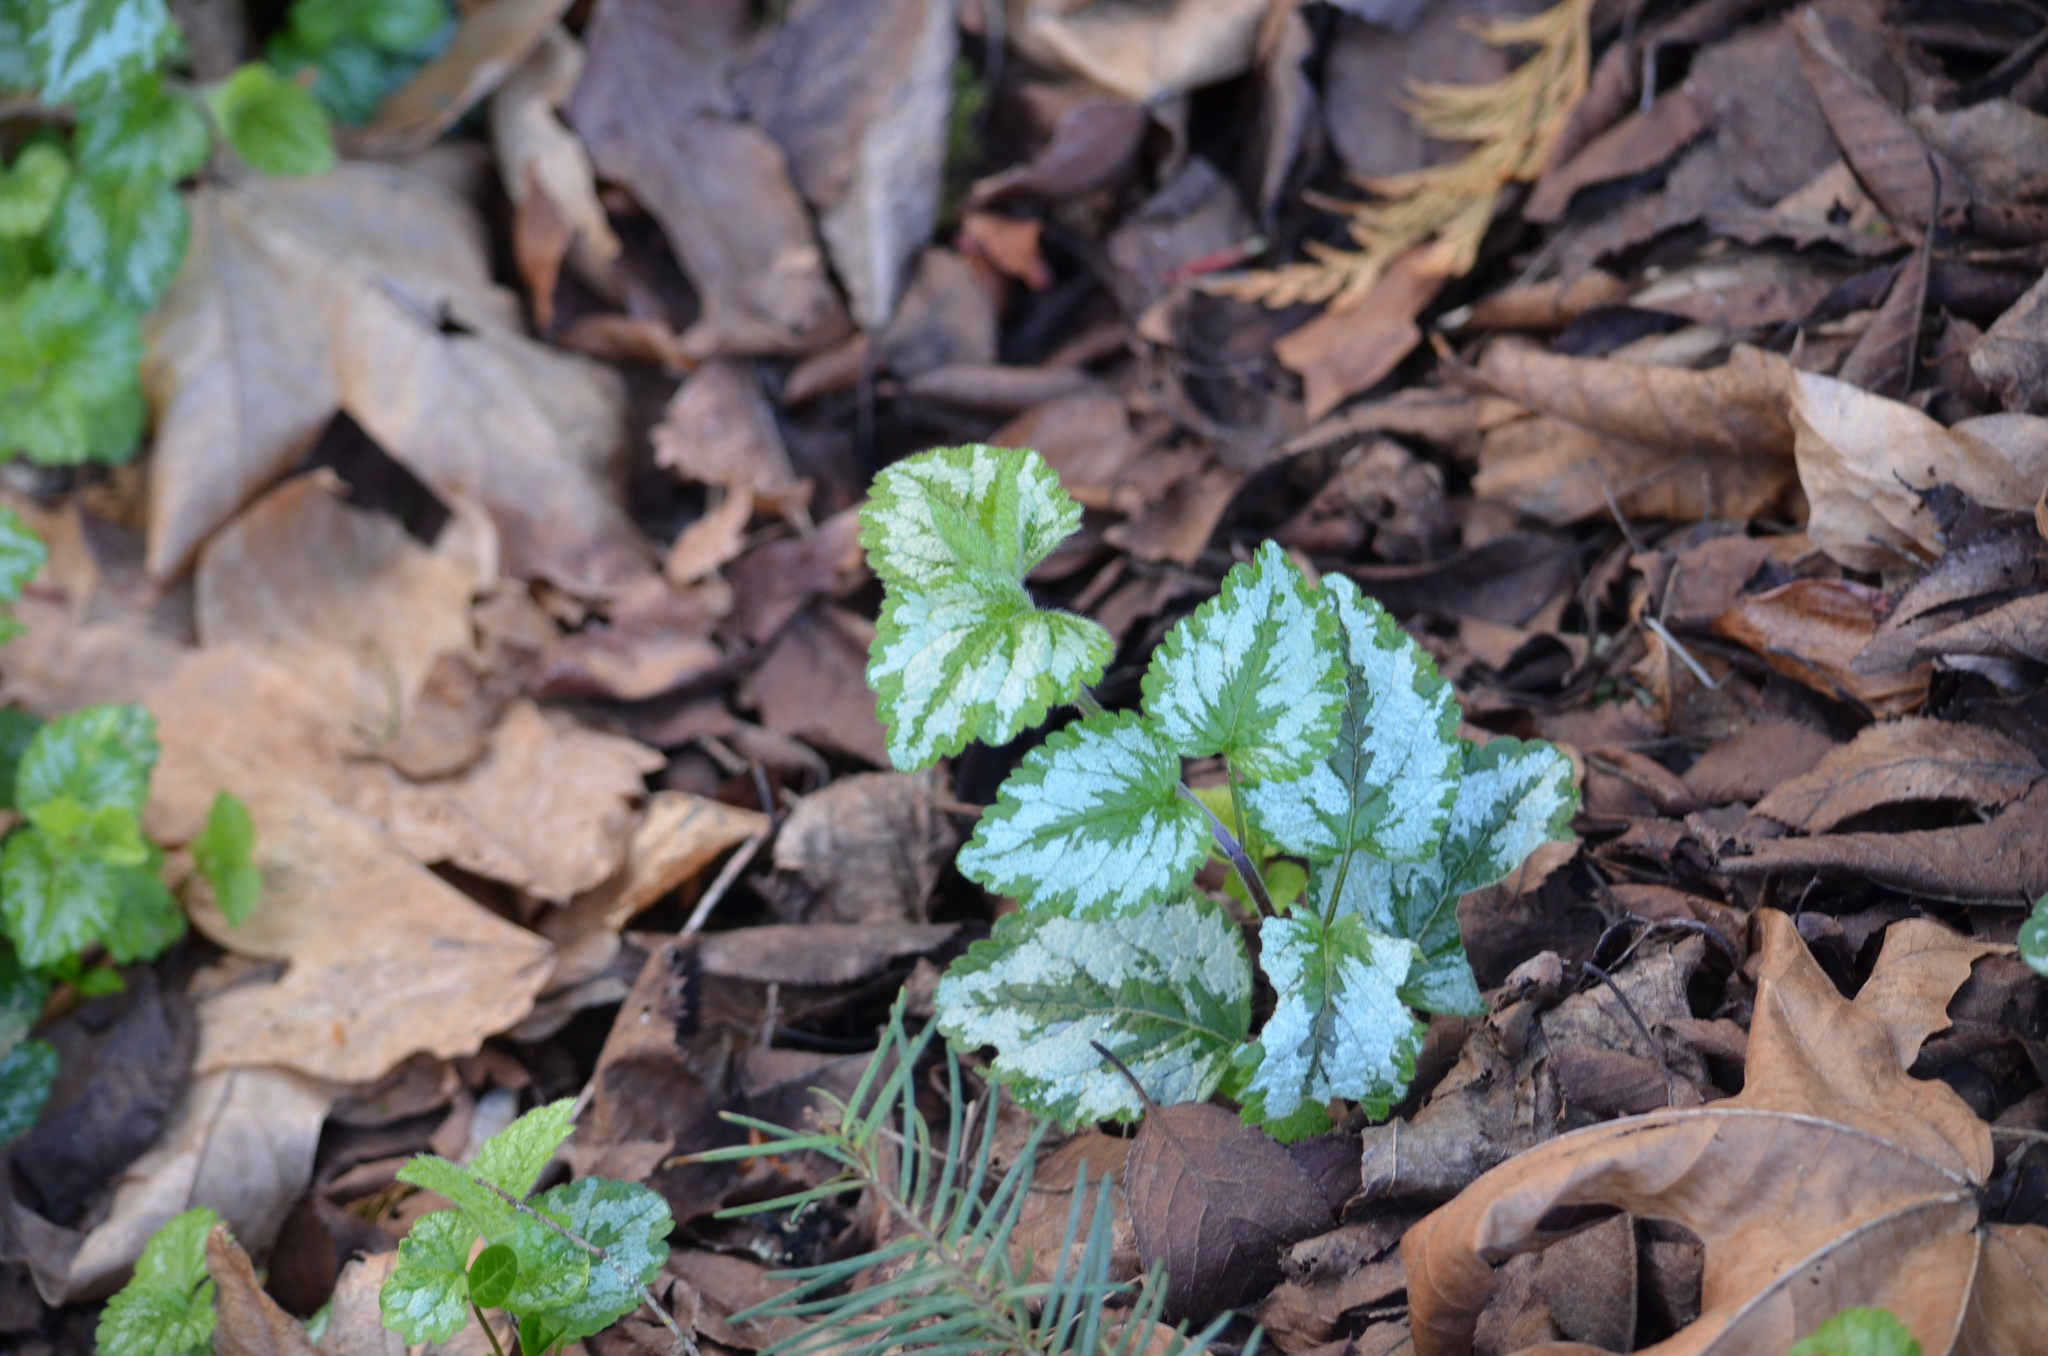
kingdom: Plantae
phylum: Tracheophyta
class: Magnoliopsida
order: Lamiales
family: Lamiaceae
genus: Lamium
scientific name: Lamium galeobdolon
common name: Yellow archangel
